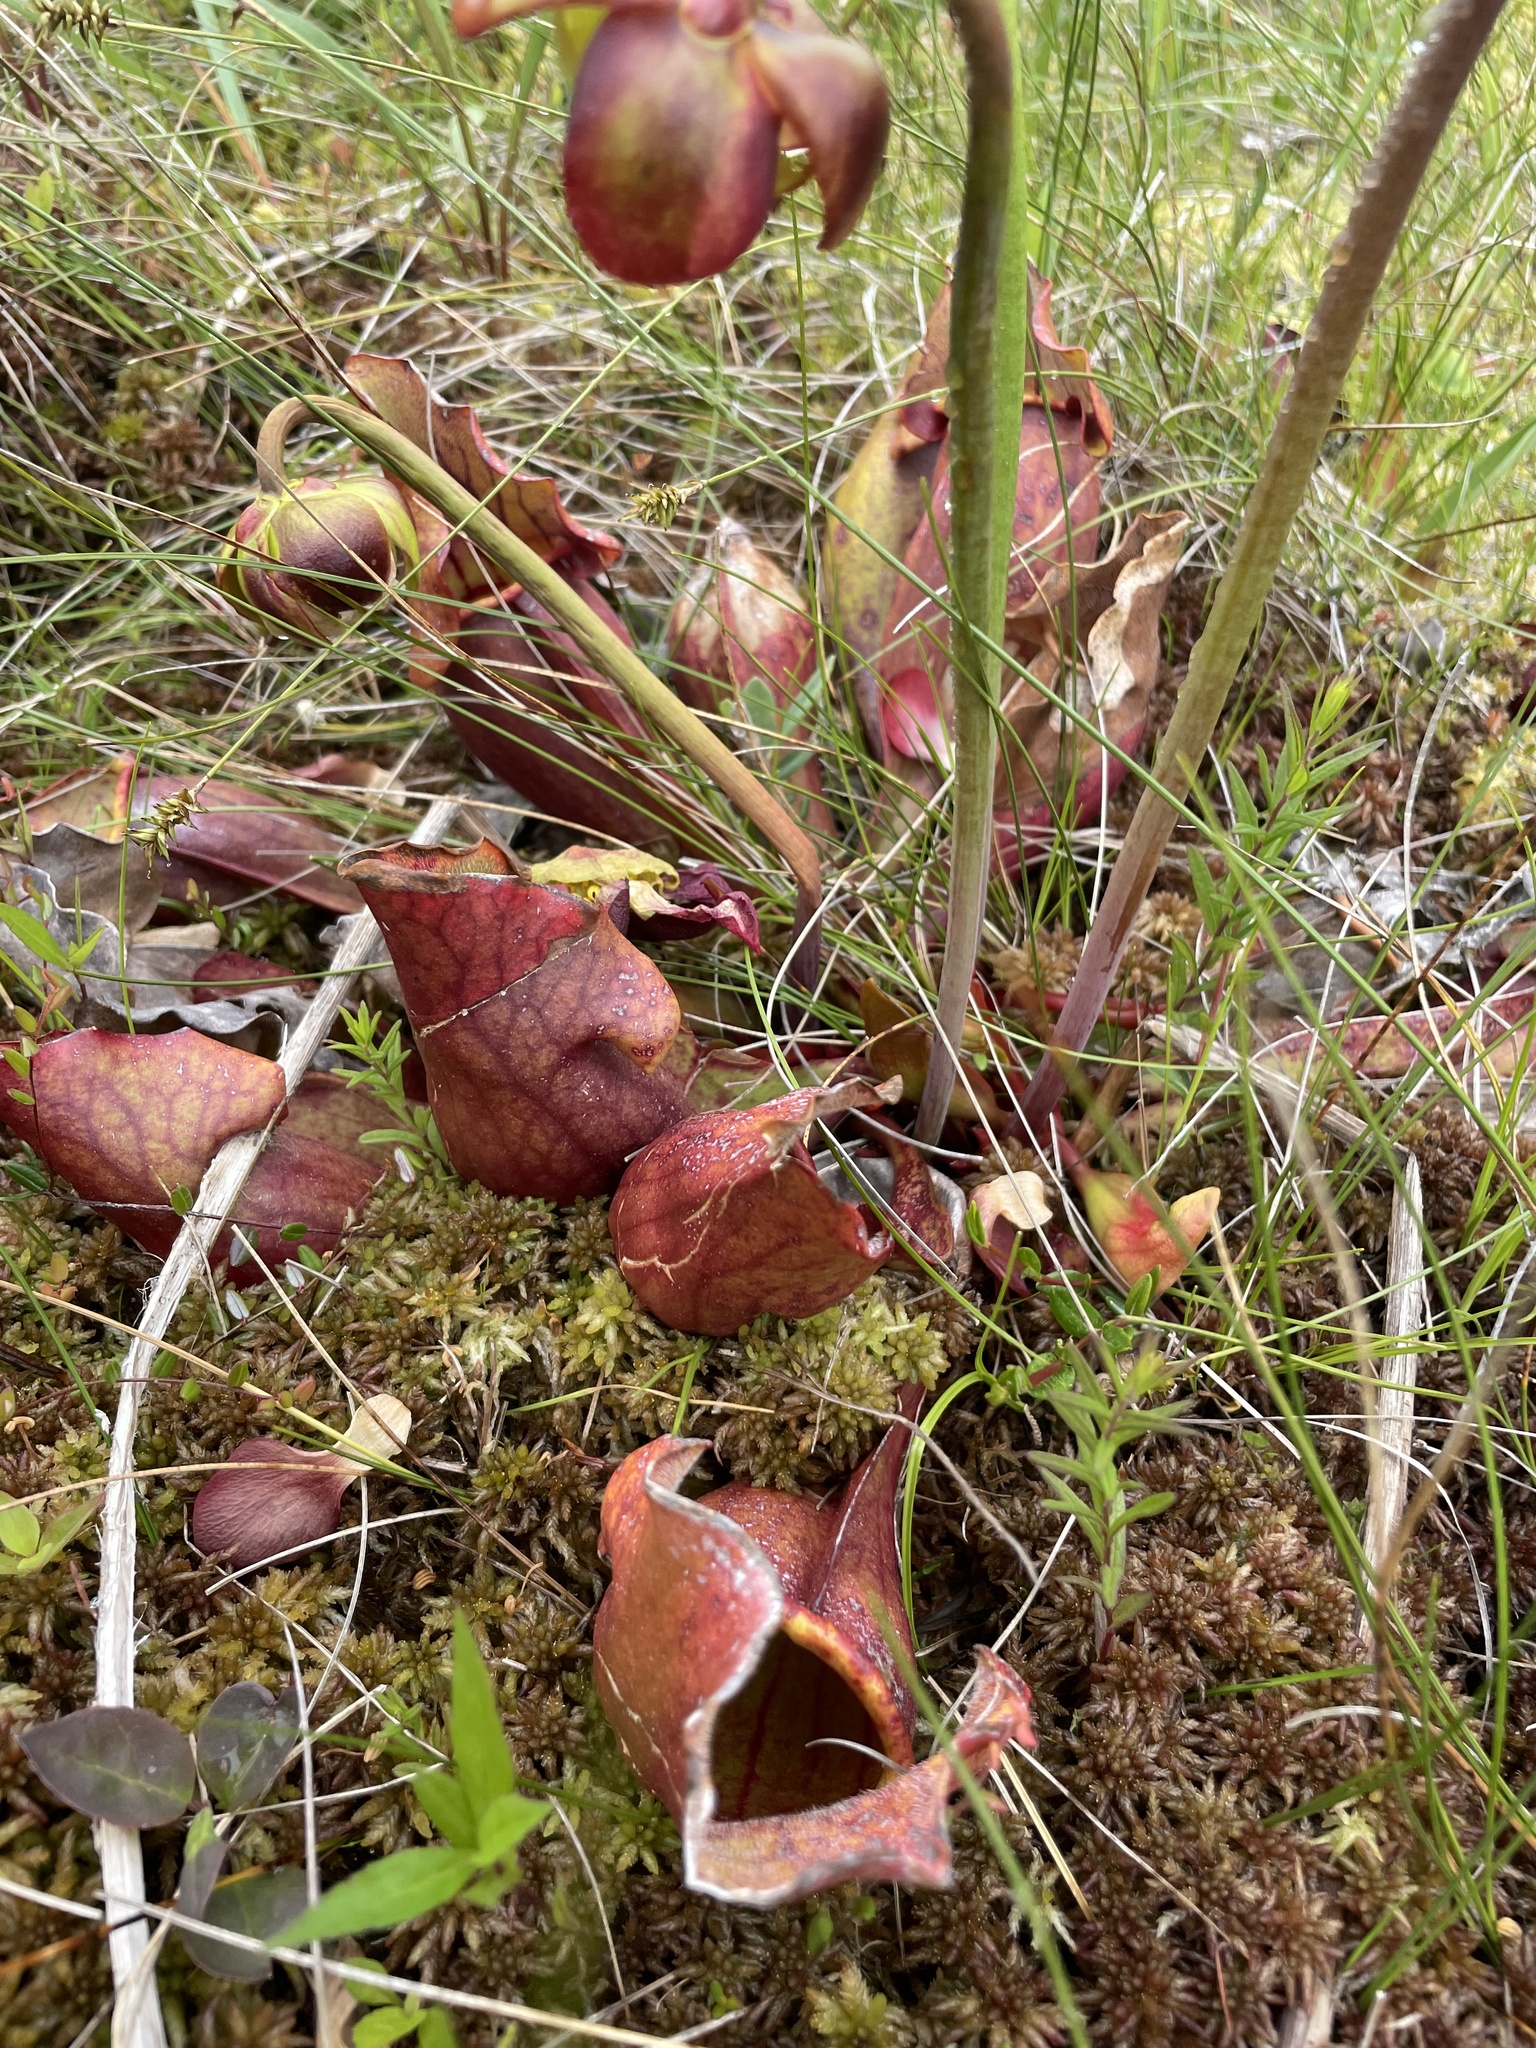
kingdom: Plantae
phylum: Tracheophyta
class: Magnoliopsida
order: Ericales
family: Sarraceniaceae
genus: Sarracenia
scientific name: Sarracenia purpurea
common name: Pitcherplant
